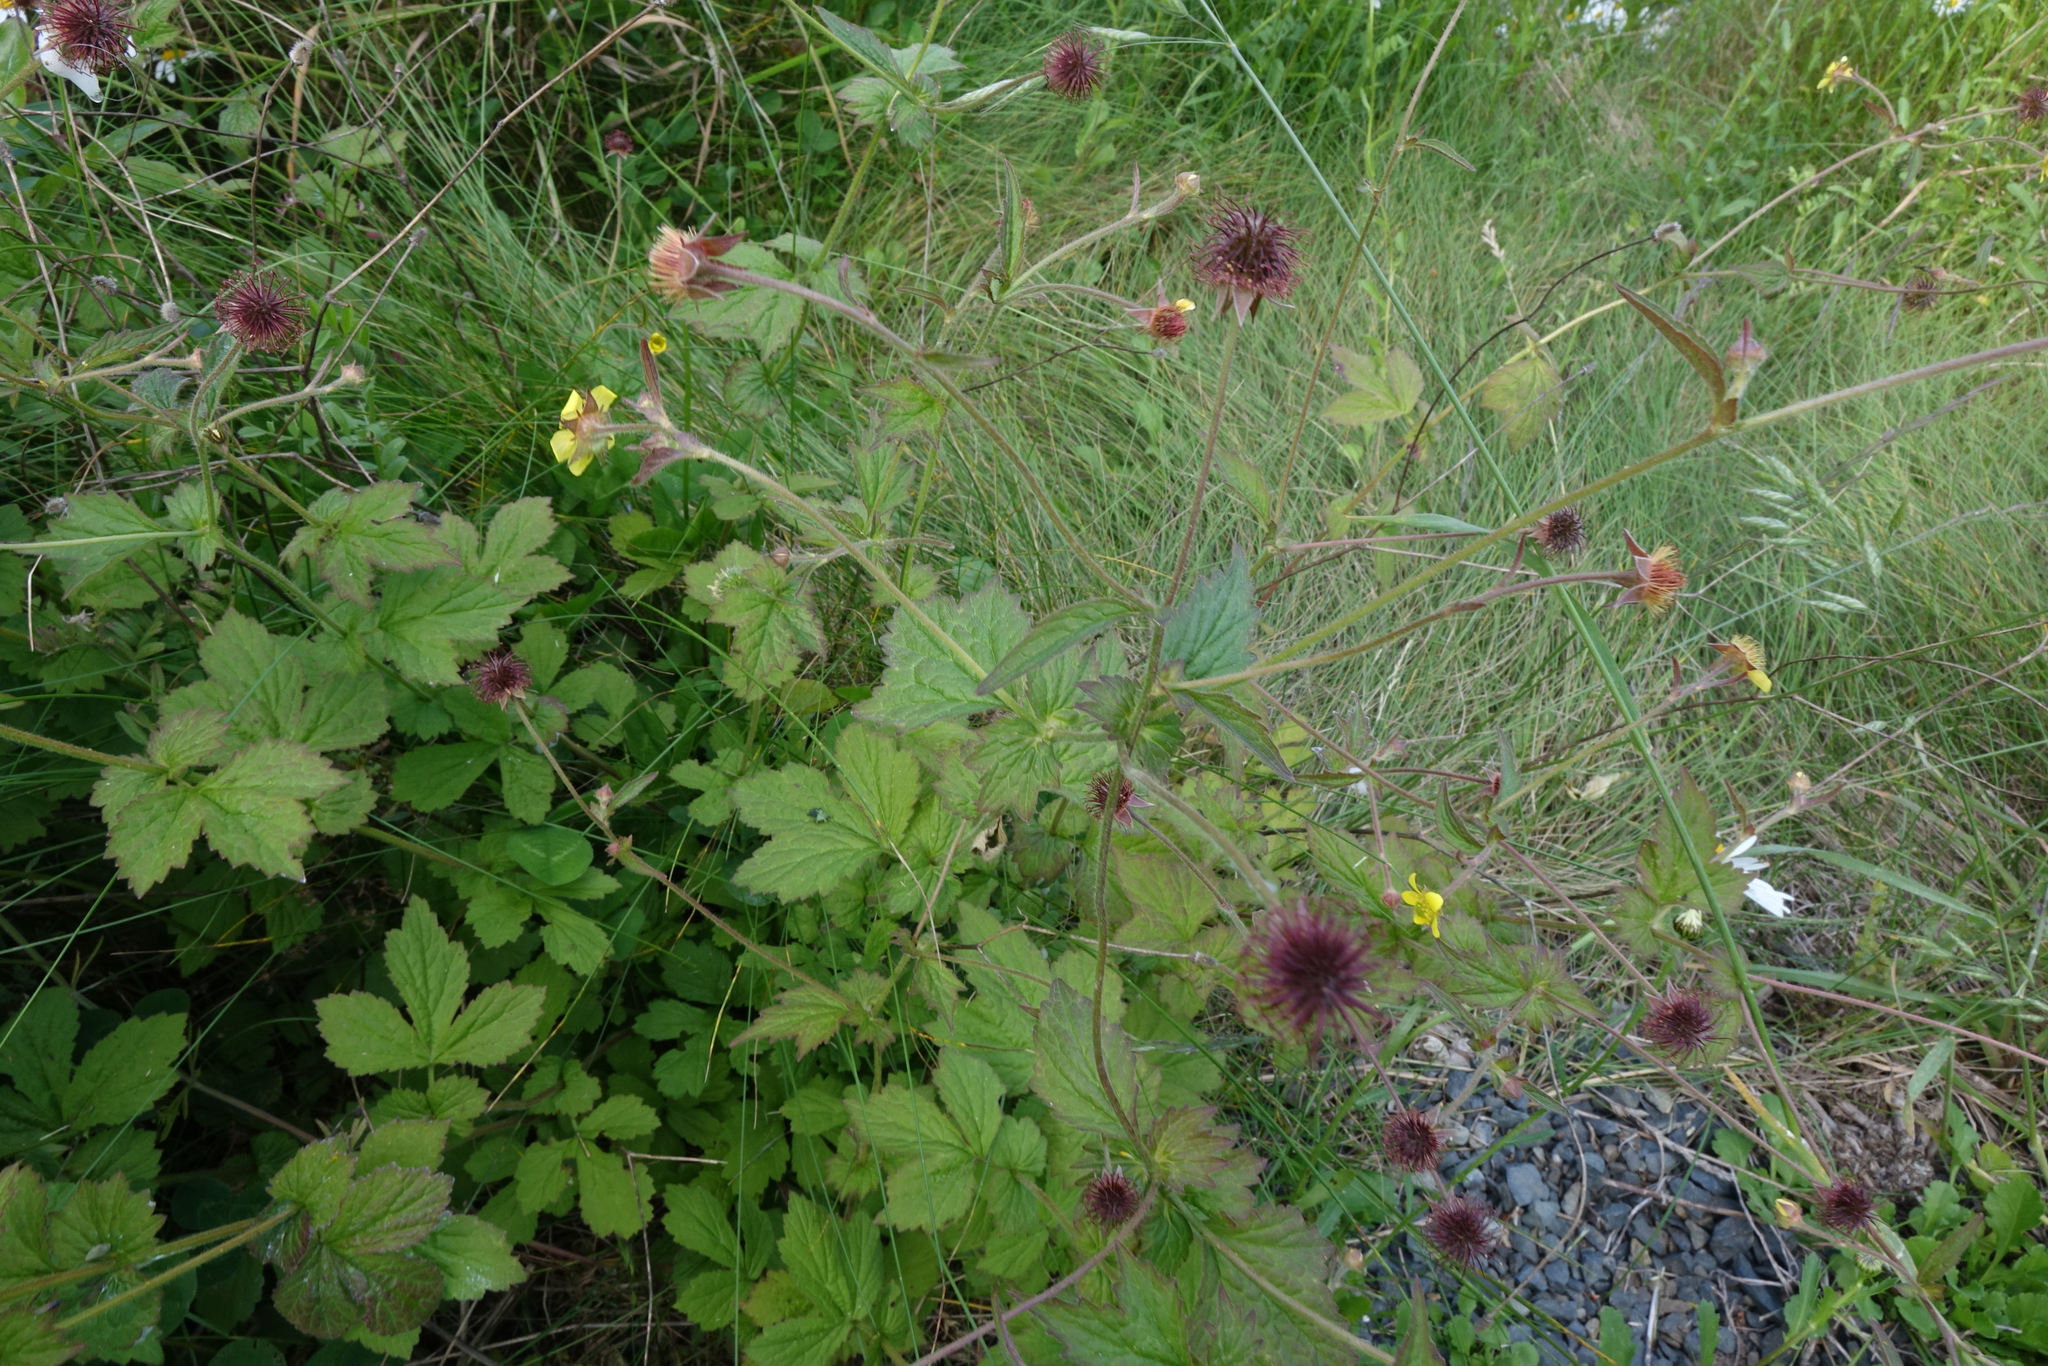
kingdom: Plantae
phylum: Tracheophyta
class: Magnoliopsida
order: Rosales
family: Rosaceae
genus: Geum
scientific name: Geum urbanum
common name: Wood avens
